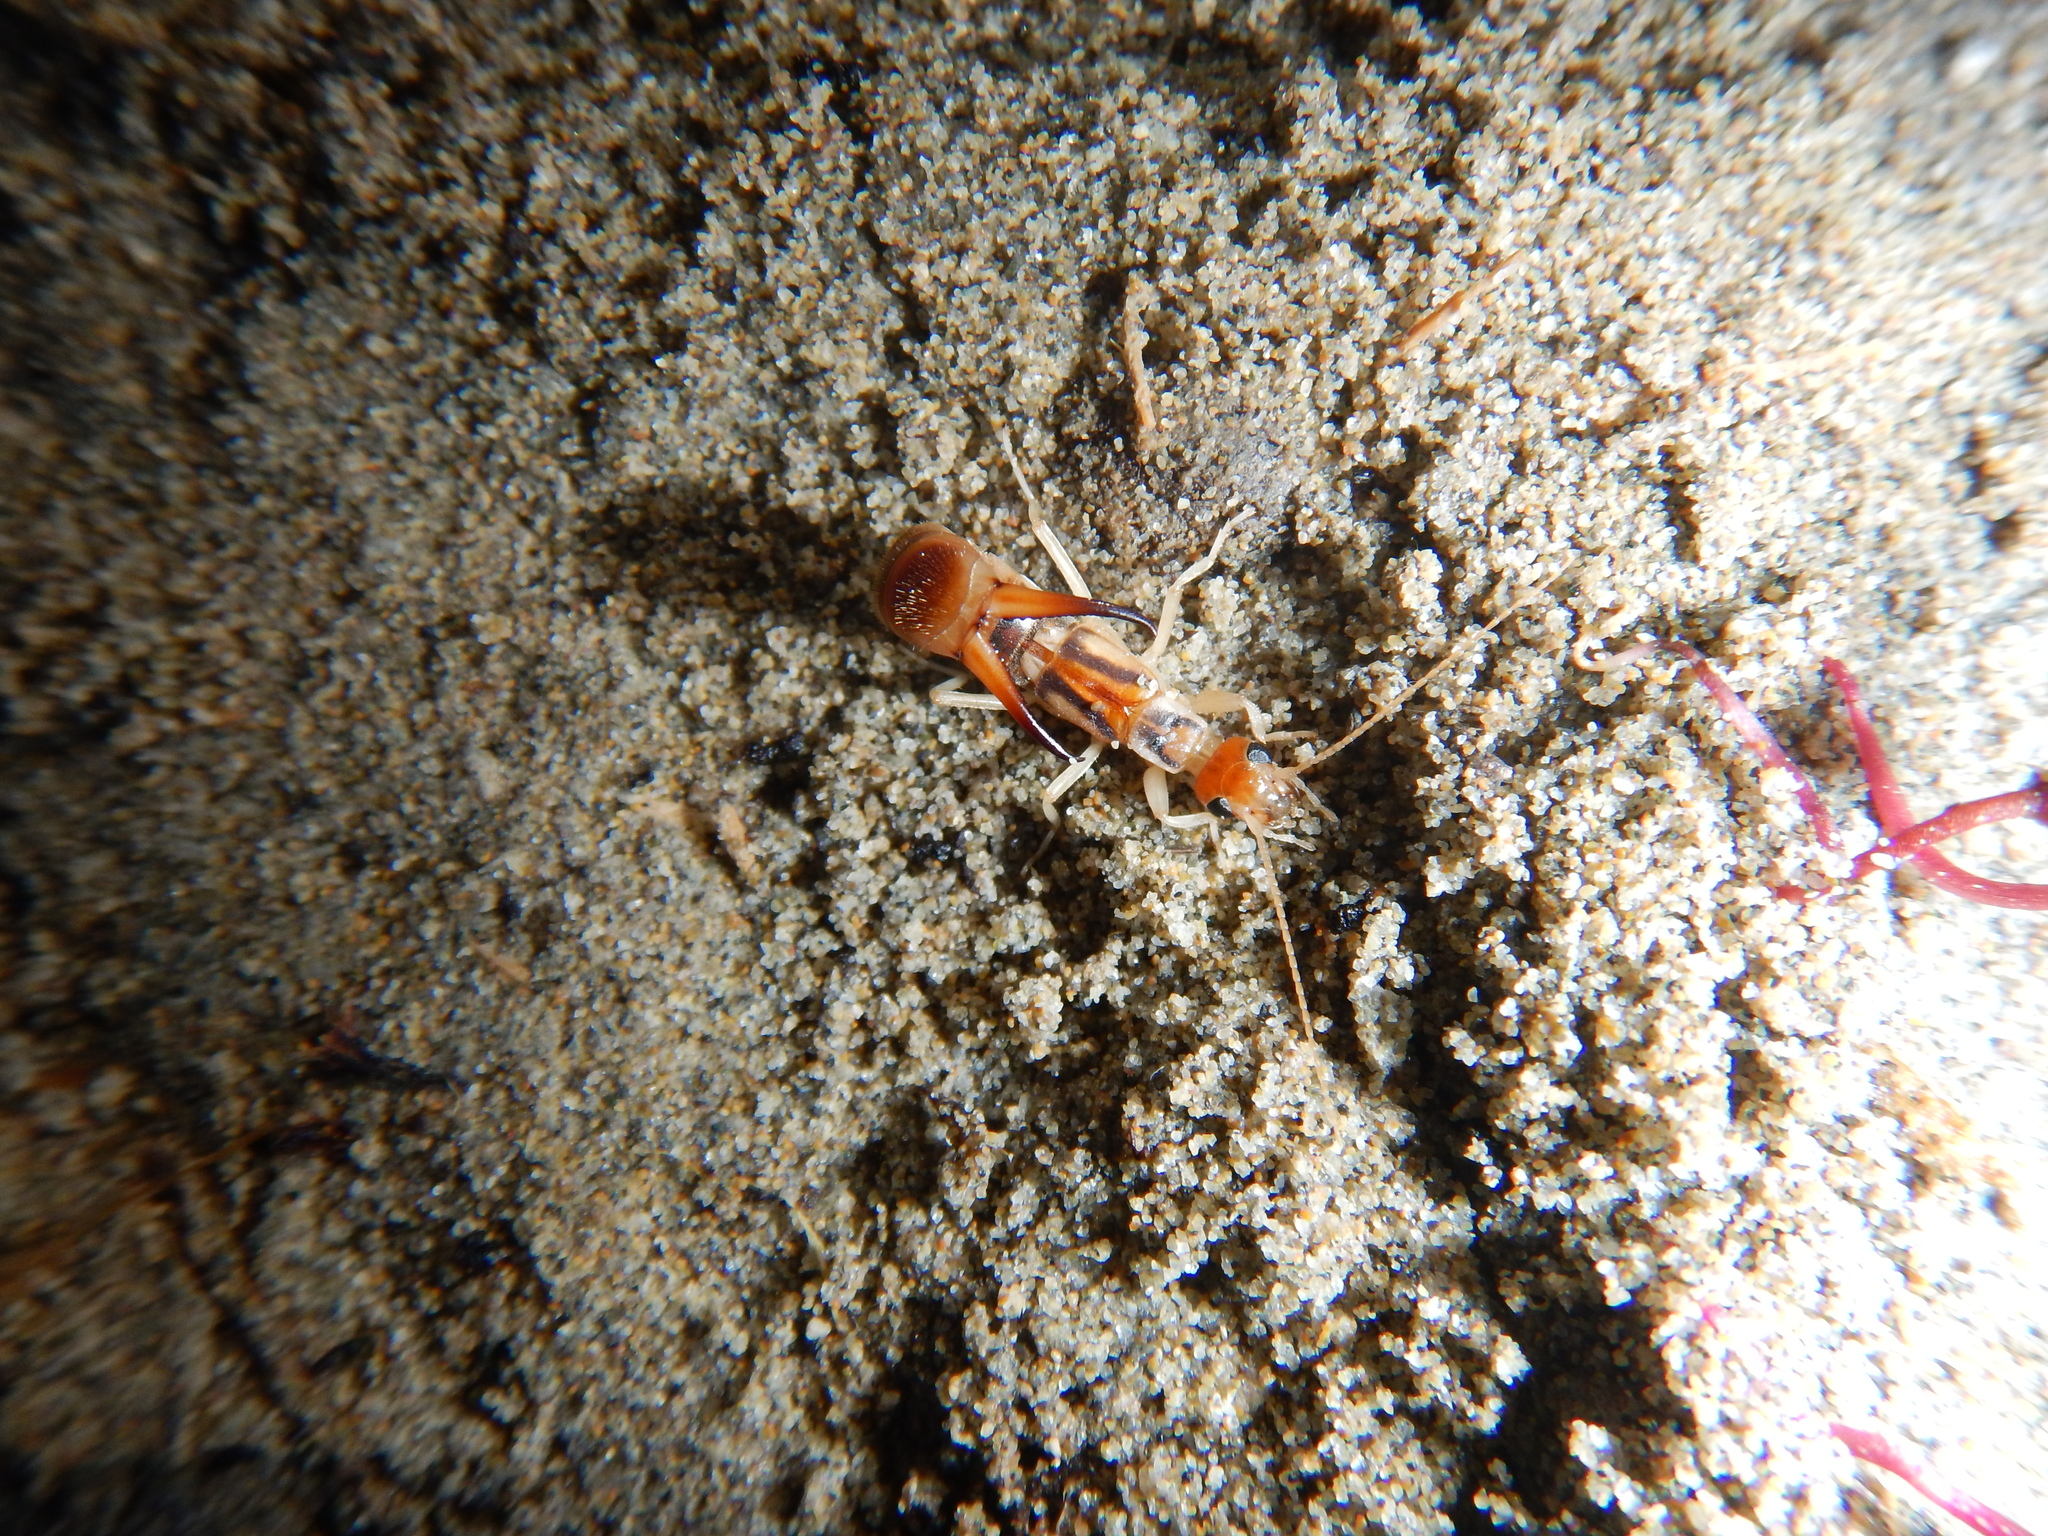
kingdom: Animalia
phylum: Arthropoda
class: Insecta
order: Dermaptera
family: Labiduridae
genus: Labidura
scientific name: Labidura riparia
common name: Striped earwig
